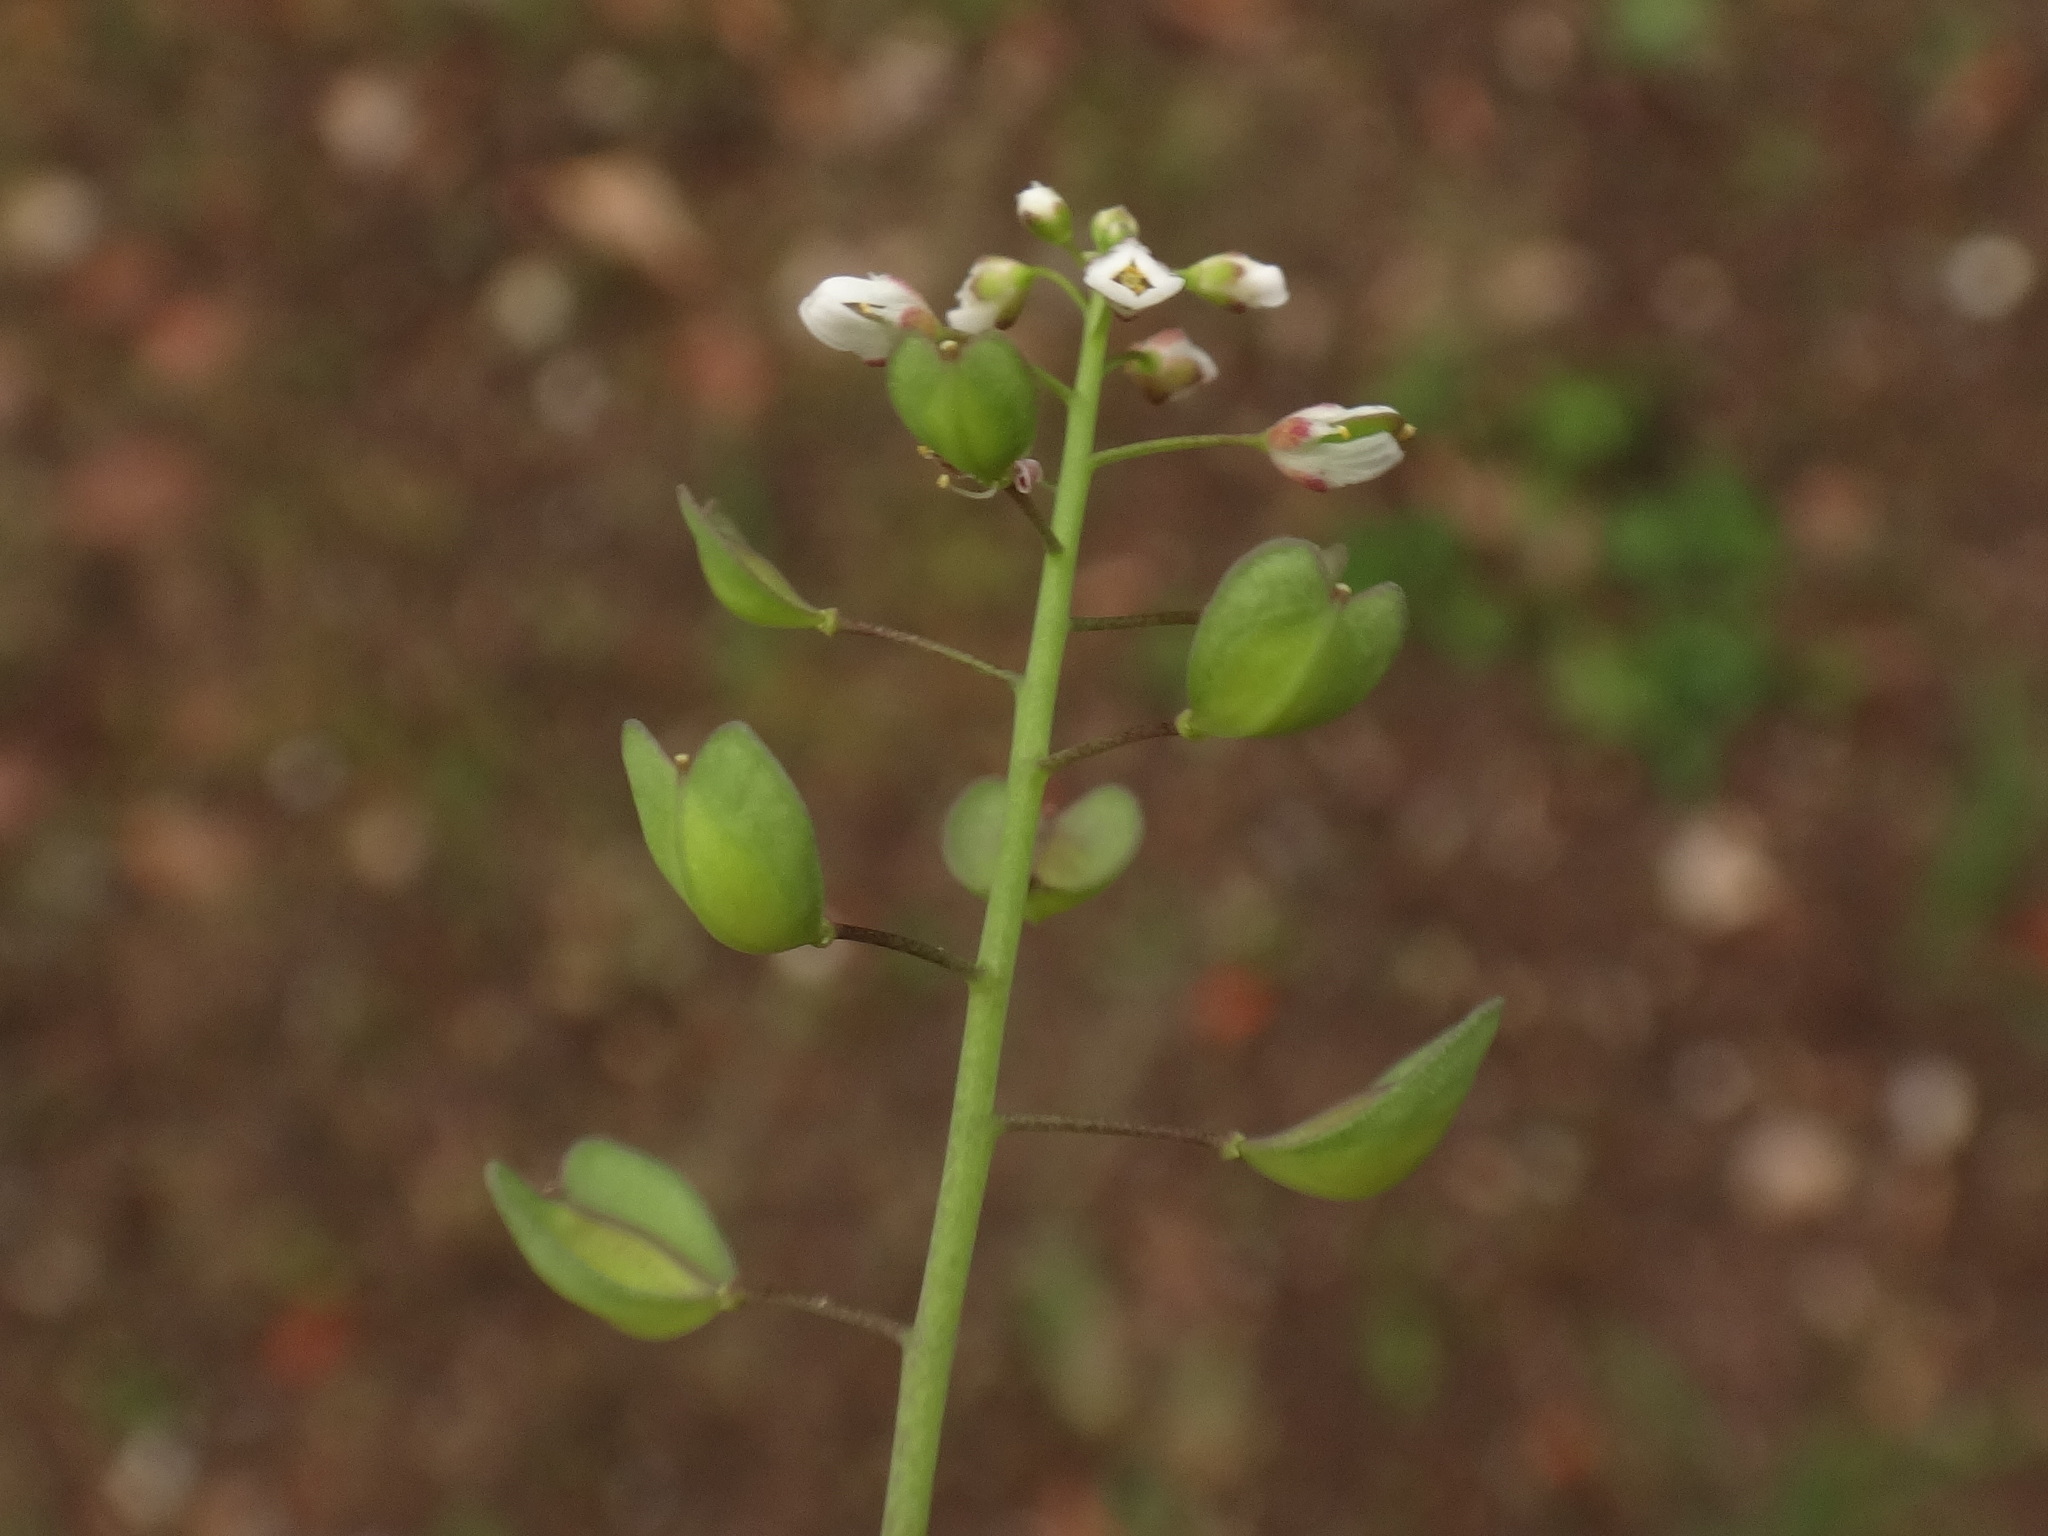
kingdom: Plantae
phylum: Tracheophyta
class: Magnoliopsida
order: Brassicales
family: Brassicaceae
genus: Noccaea
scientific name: Noccaea perfoliata
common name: Perfoliate pennycress
